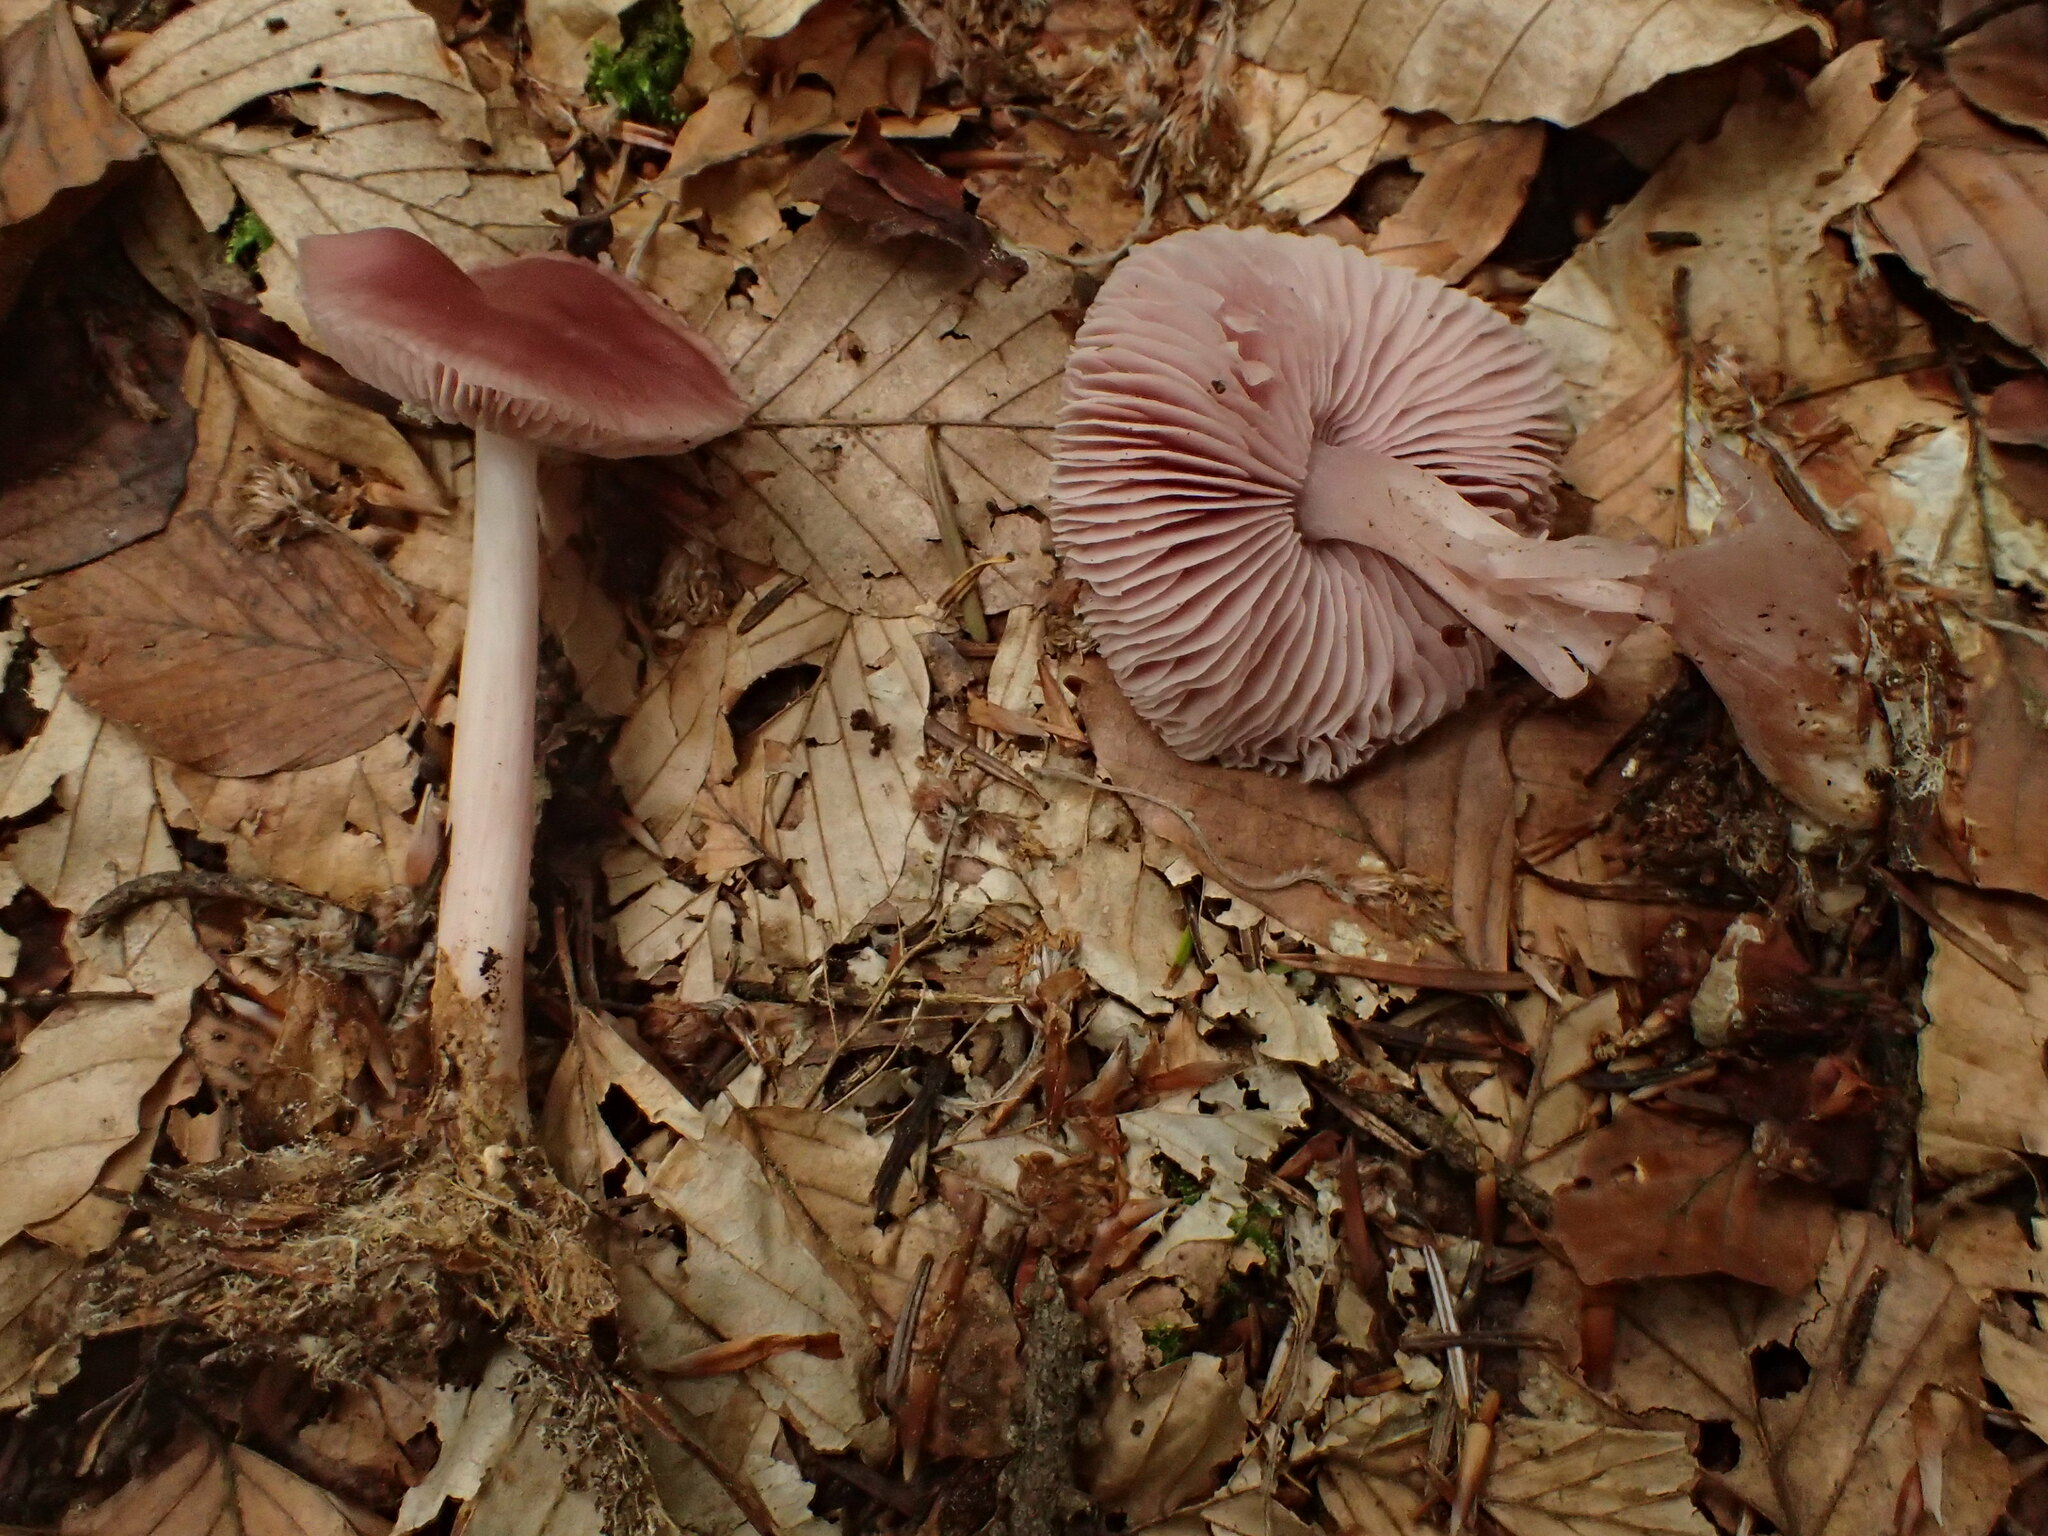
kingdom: Fungi
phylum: Basidiomycota
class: Agaricomycetes
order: Agaricales
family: Mycenaceae
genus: Mycena
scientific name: Mycena pura
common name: Lilac bonnet
